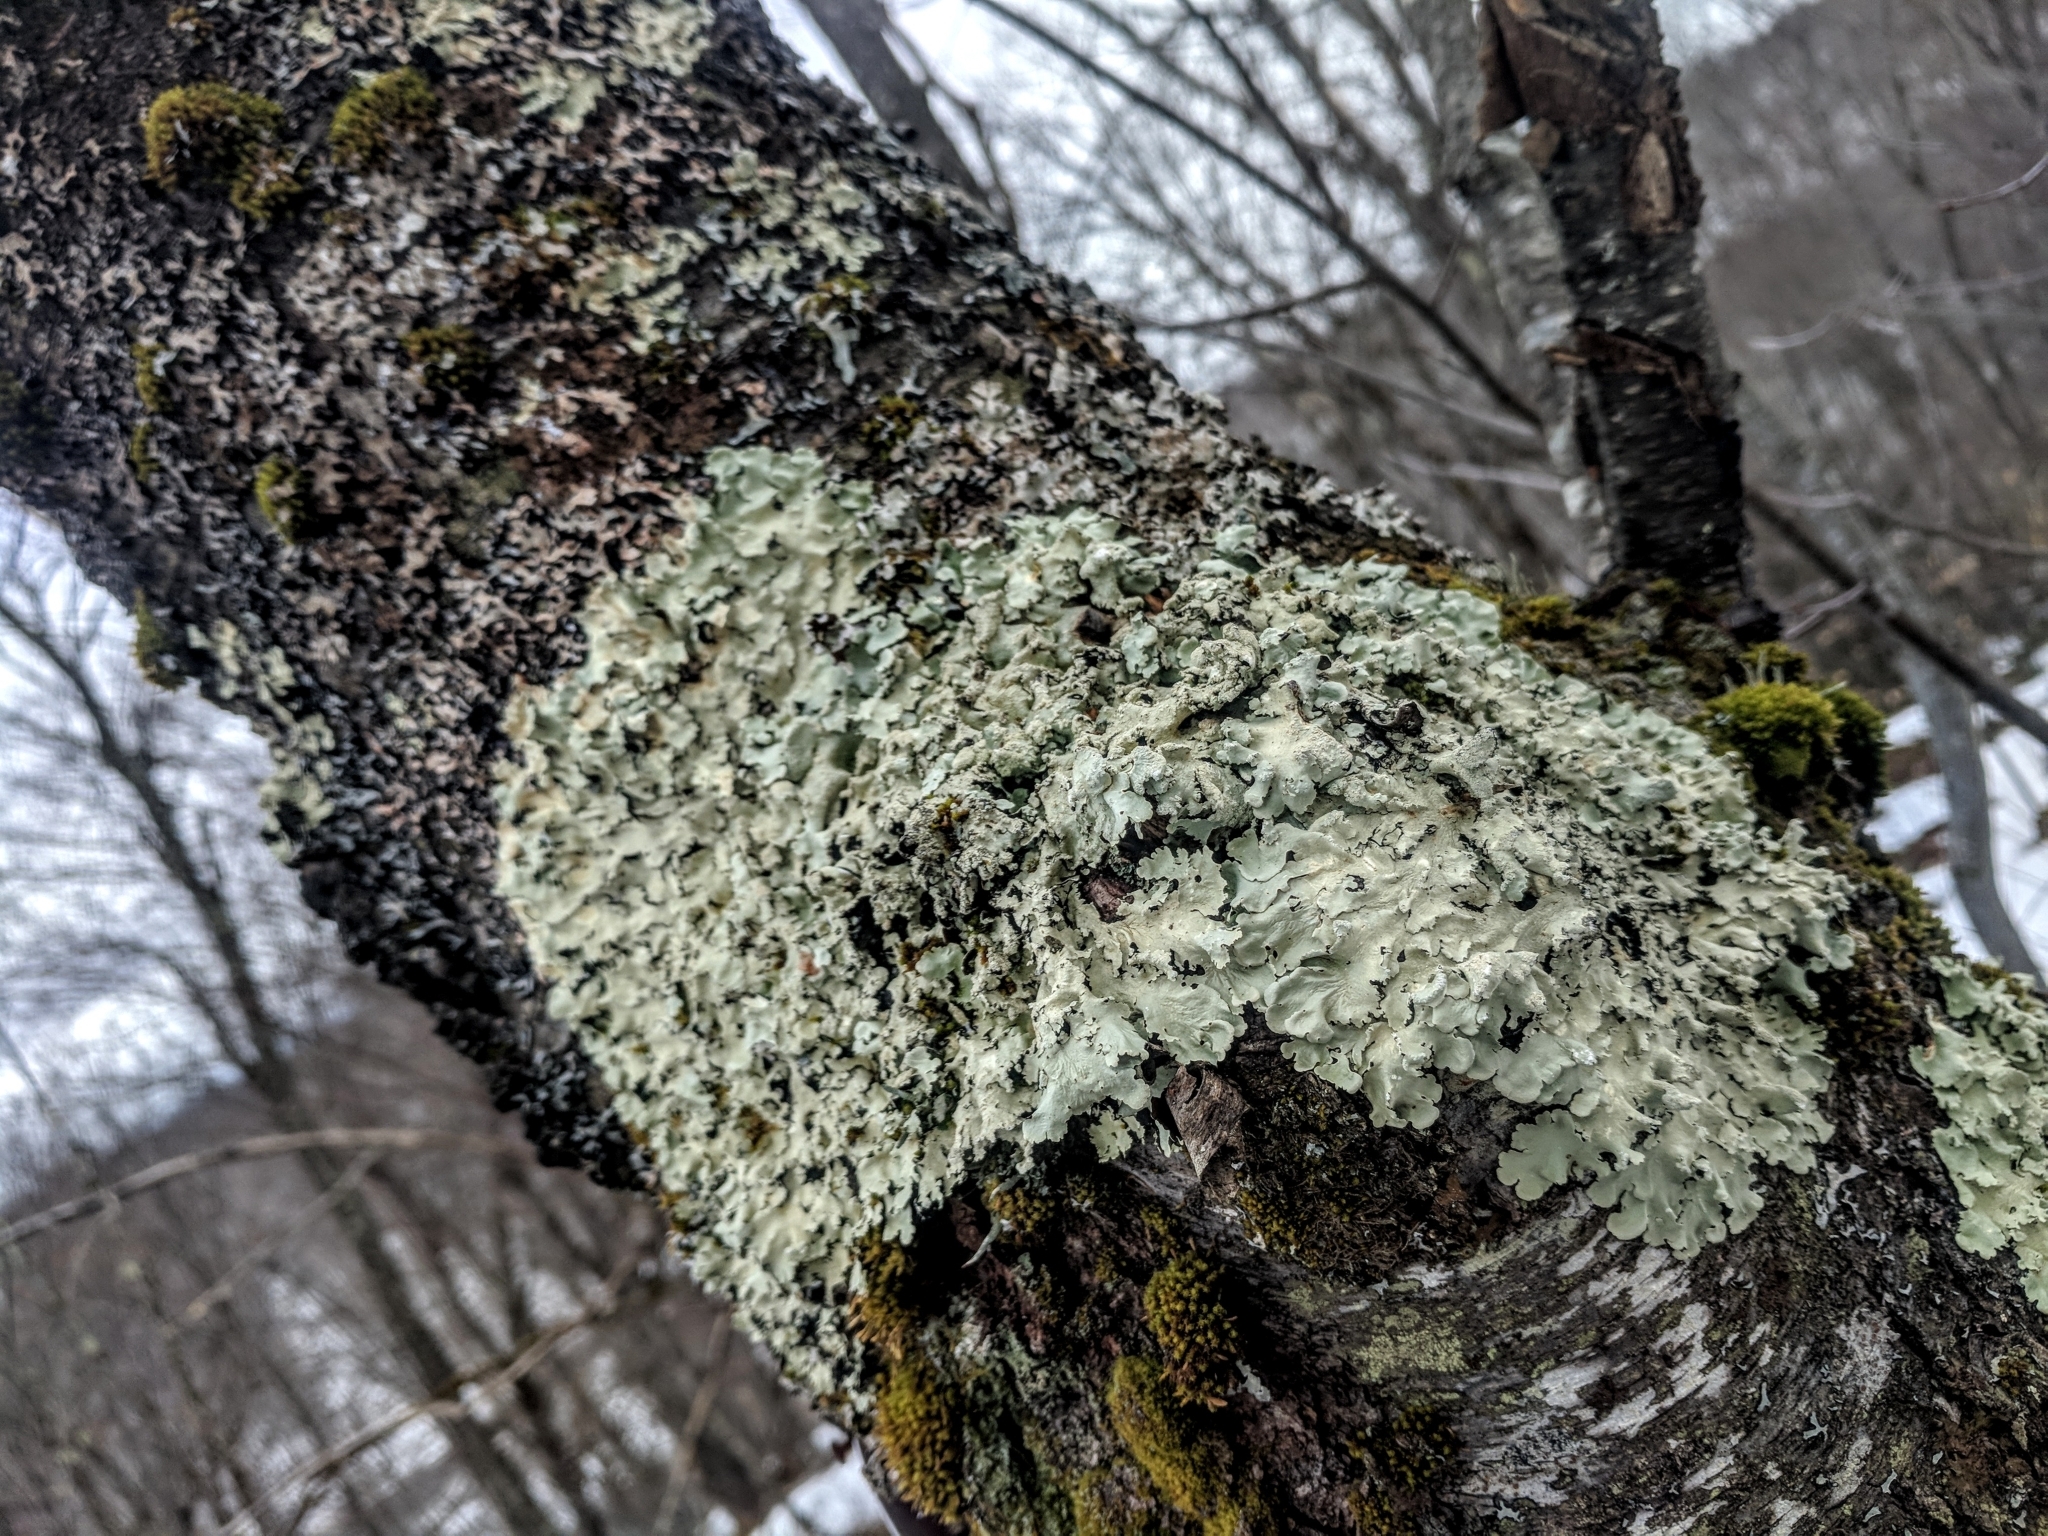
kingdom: Fungi
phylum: Ascomycota
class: Lecanoromycetes
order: Lecanorales
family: Parmeliaceae
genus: Flavoparmelia
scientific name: Flavoparmelia caperata
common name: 40-mile per hour lichen
